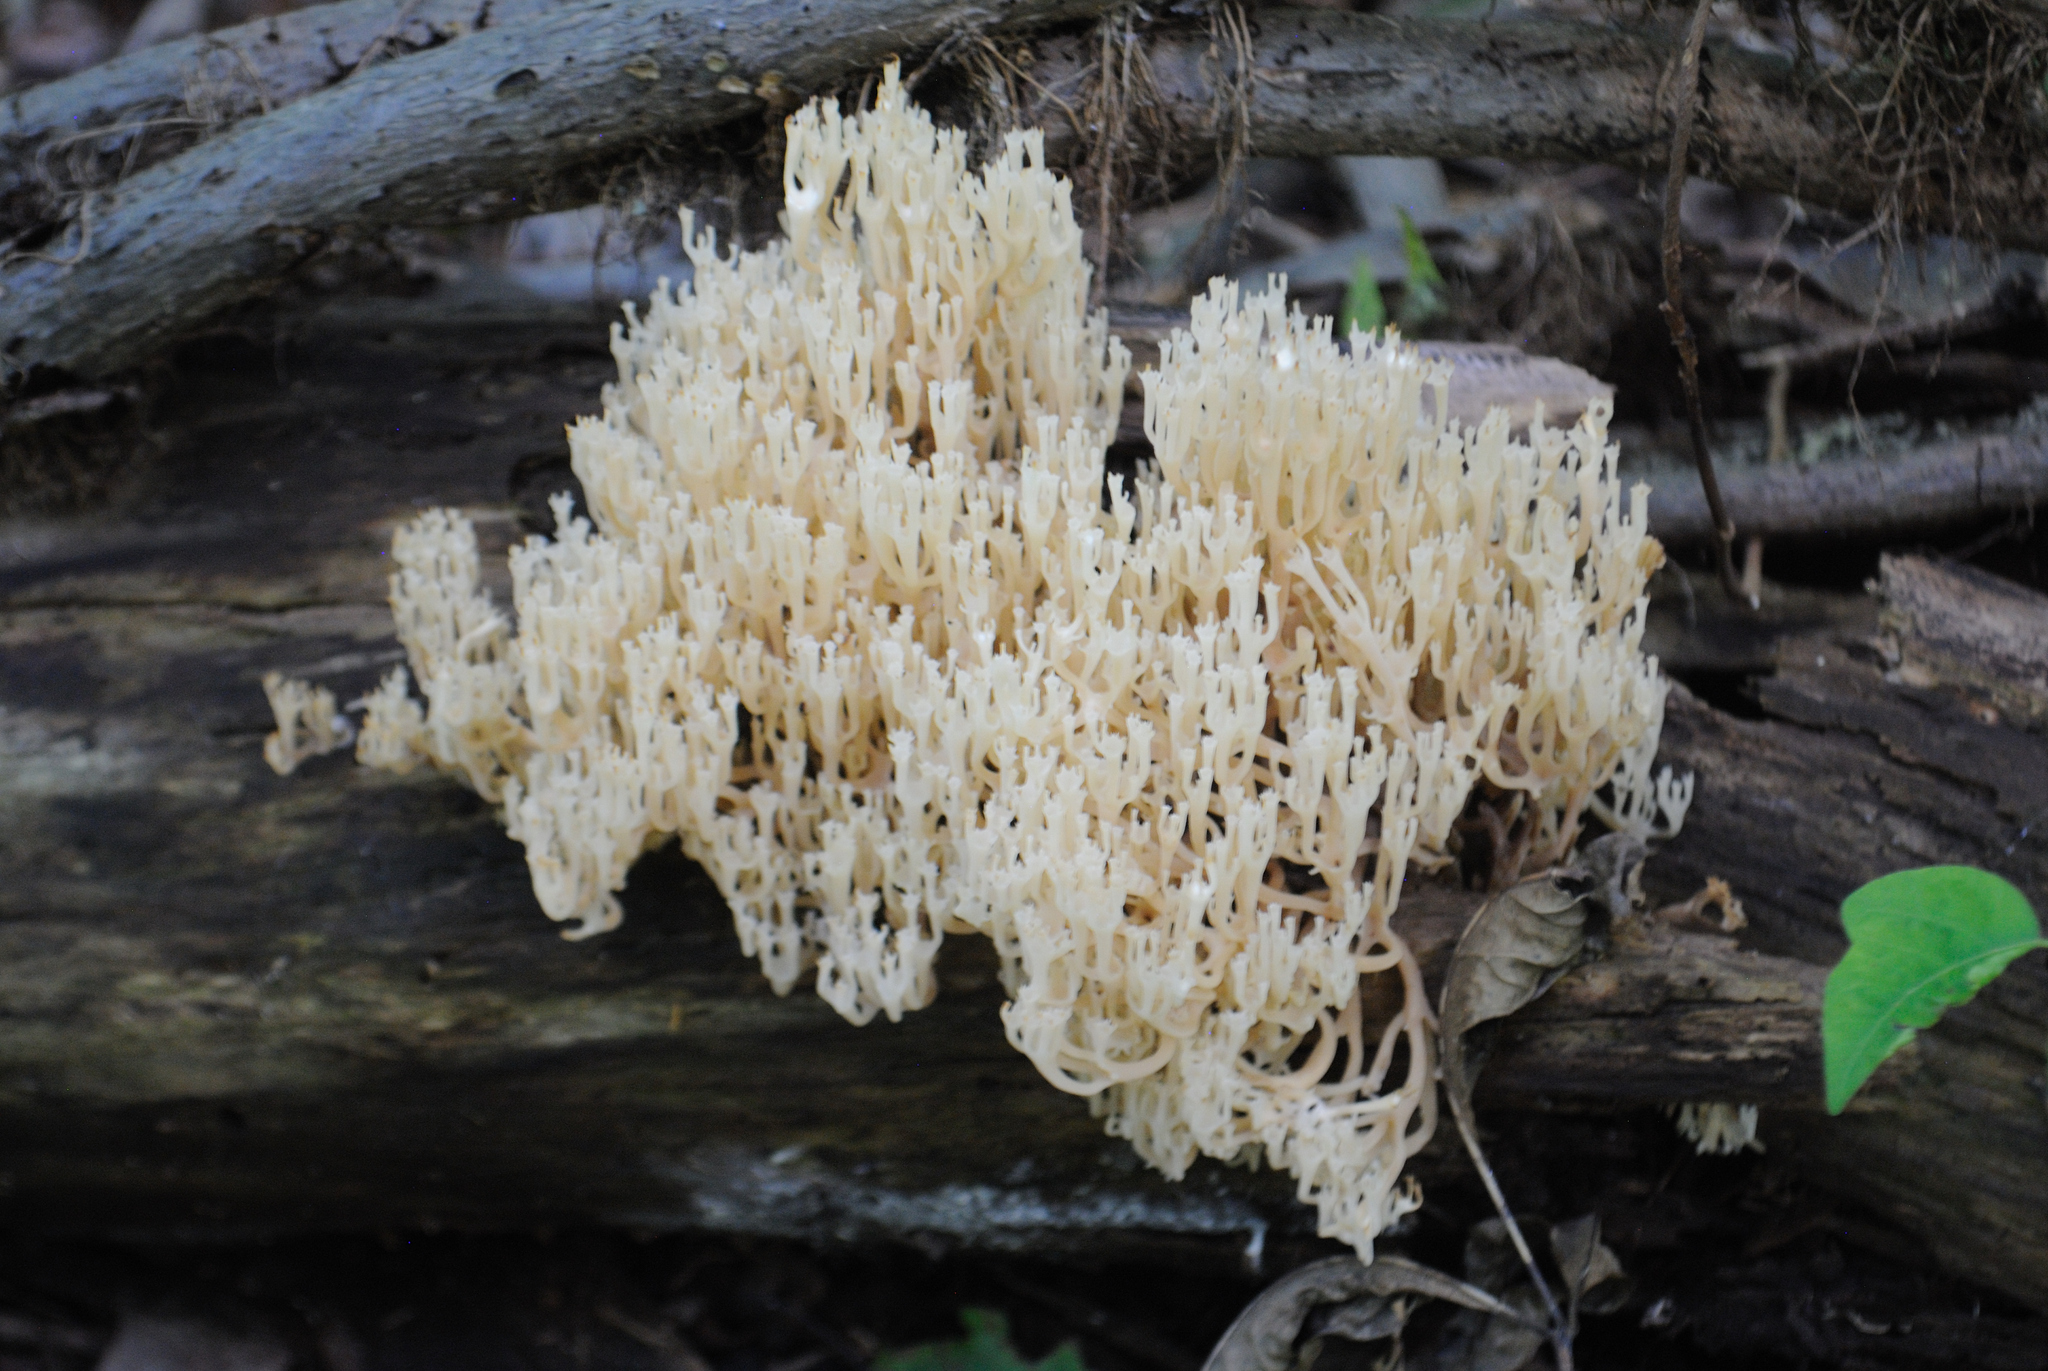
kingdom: Fungi
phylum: Basidiomycota
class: Agaricomycetes
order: Russulales
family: Auriscalpiaceae
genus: Artomyces
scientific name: Artomyces pyxidatus
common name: Crown-tipped coral fungus
